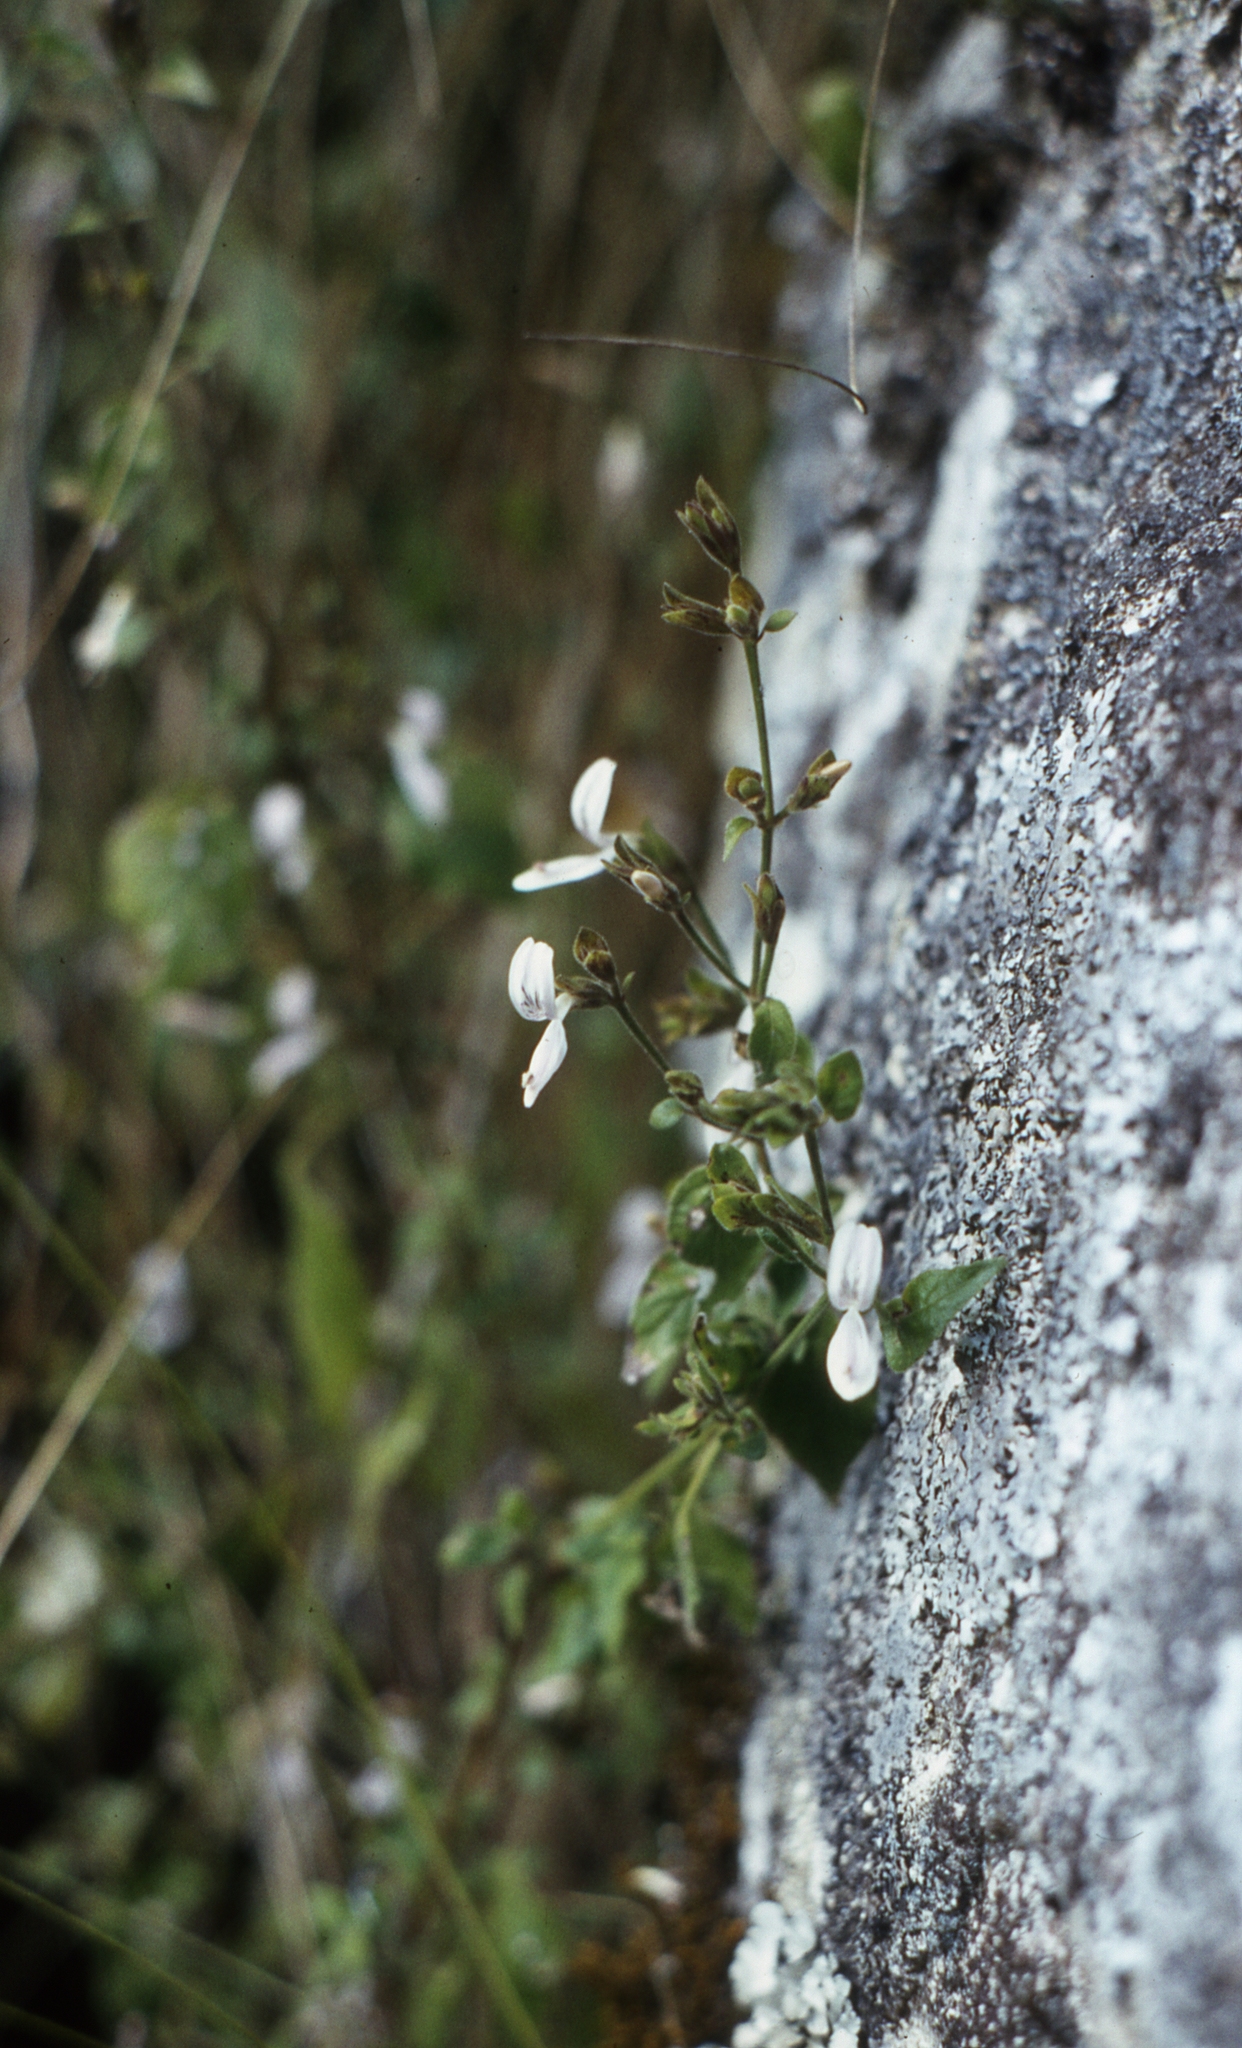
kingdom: Plantae
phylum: Tracheophyta
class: Magnoliopsida
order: Lamiales
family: Acanthaceae
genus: Hypoestes
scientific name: Hypoestes triflora
